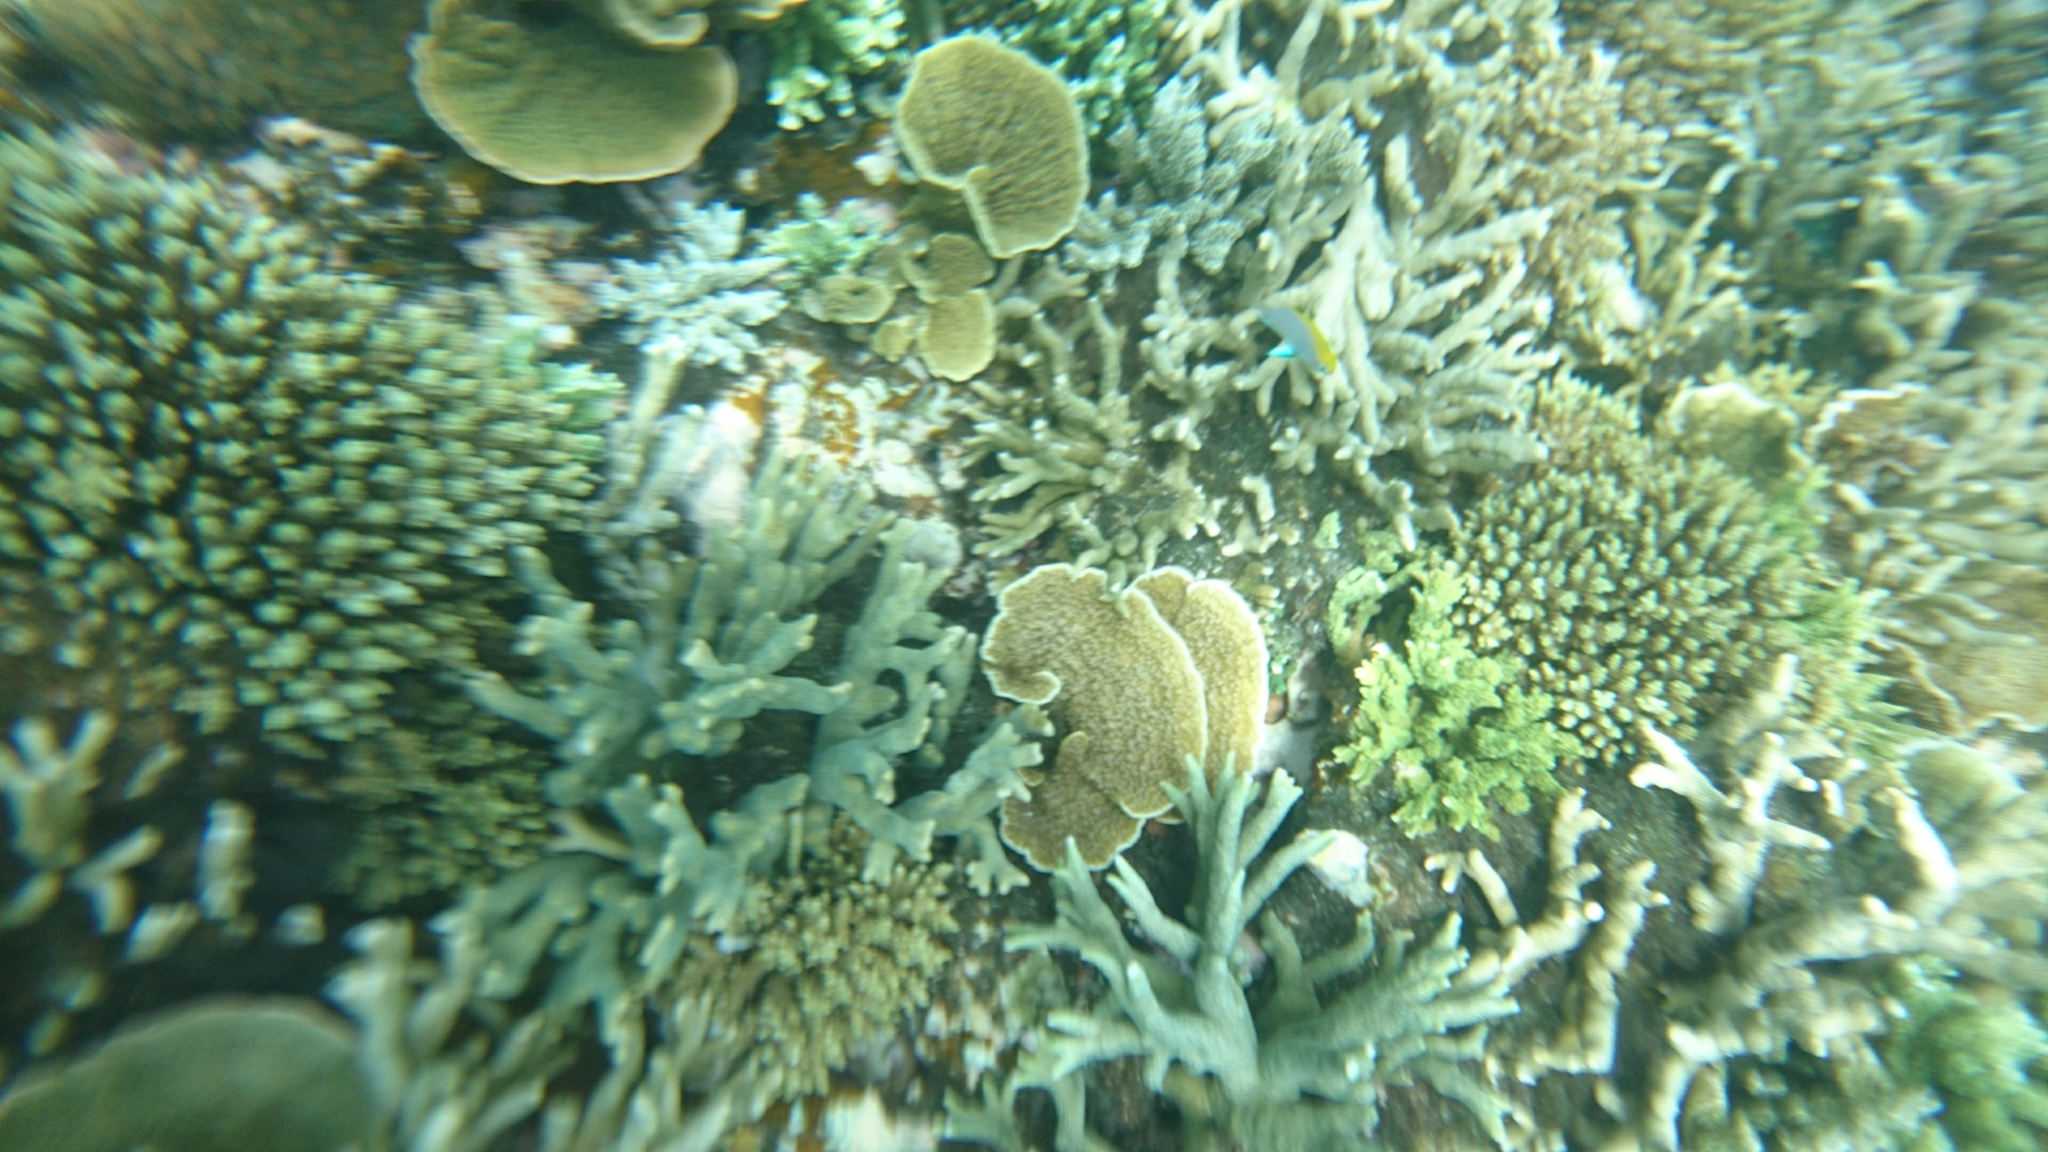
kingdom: Animalia
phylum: Chordata
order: Perciformes
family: Pomacentridae
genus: Neoglyphidodon
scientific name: Neoglyphidodon melas
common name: Black damsel
